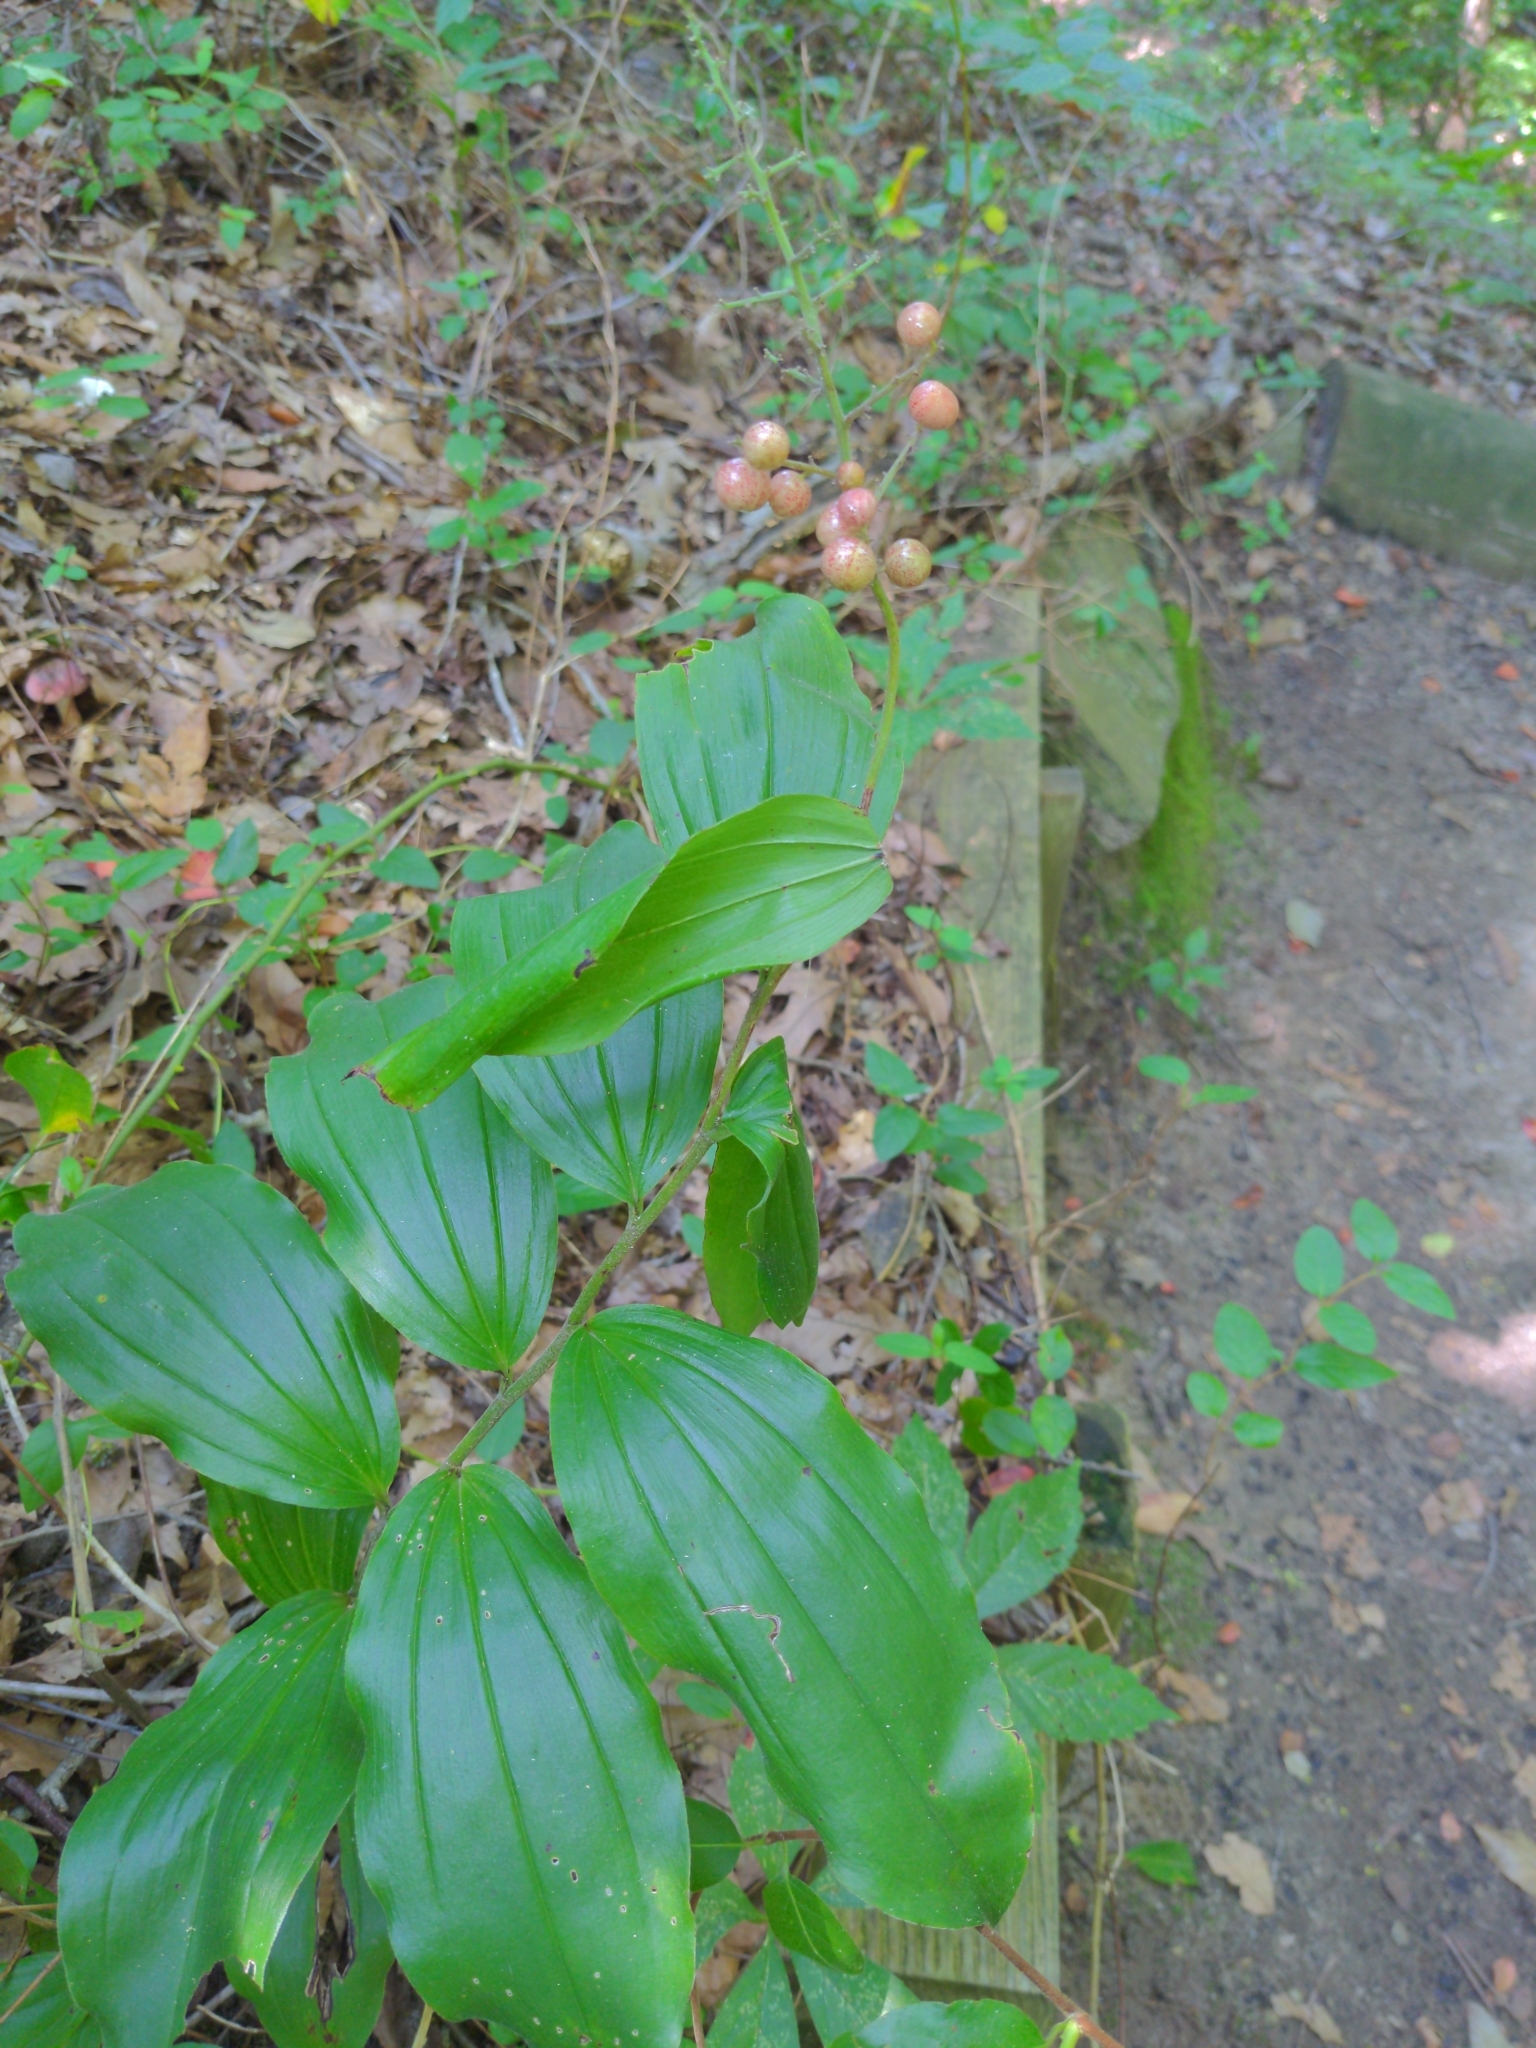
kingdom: Plantae
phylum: Tracheophyta
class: Liliopsida
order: Asparagales
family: Asparagaceae
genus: Maianthemum
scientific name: Maianthemum racemosum
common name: False spikenard
